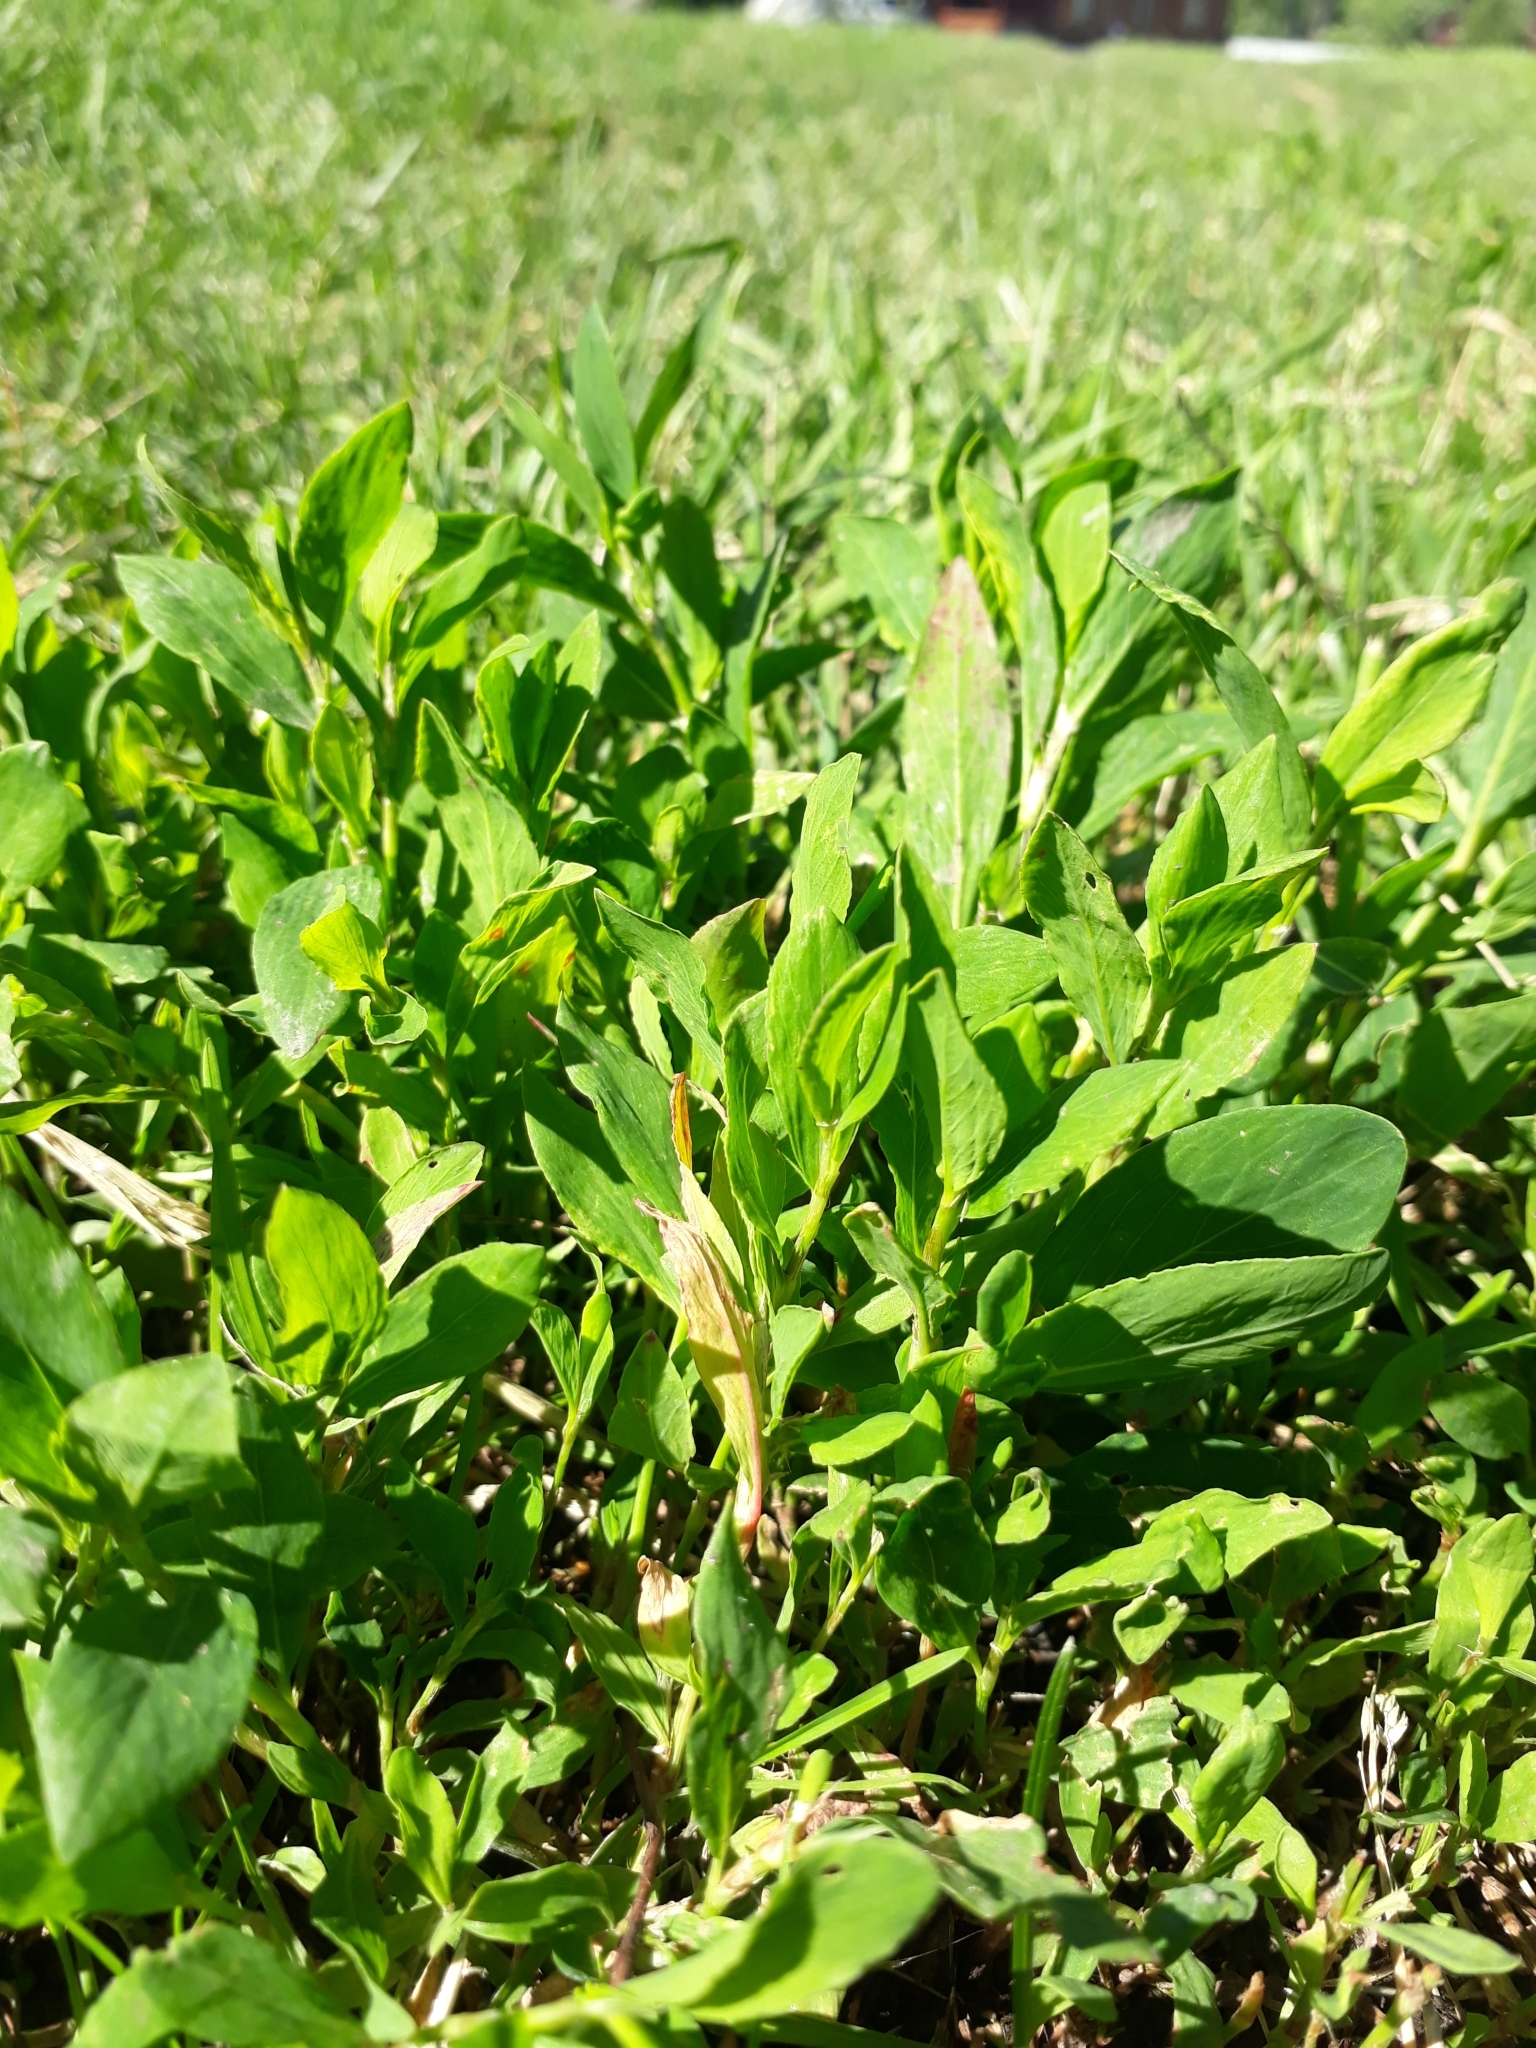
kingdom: Plantae
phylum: Tracheophyta
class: Magnoliopsida
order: Caryophyllales
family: Polygonaceae
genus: Polygonum
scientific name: Polygonum aviculare
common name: Prostrate knotweed
